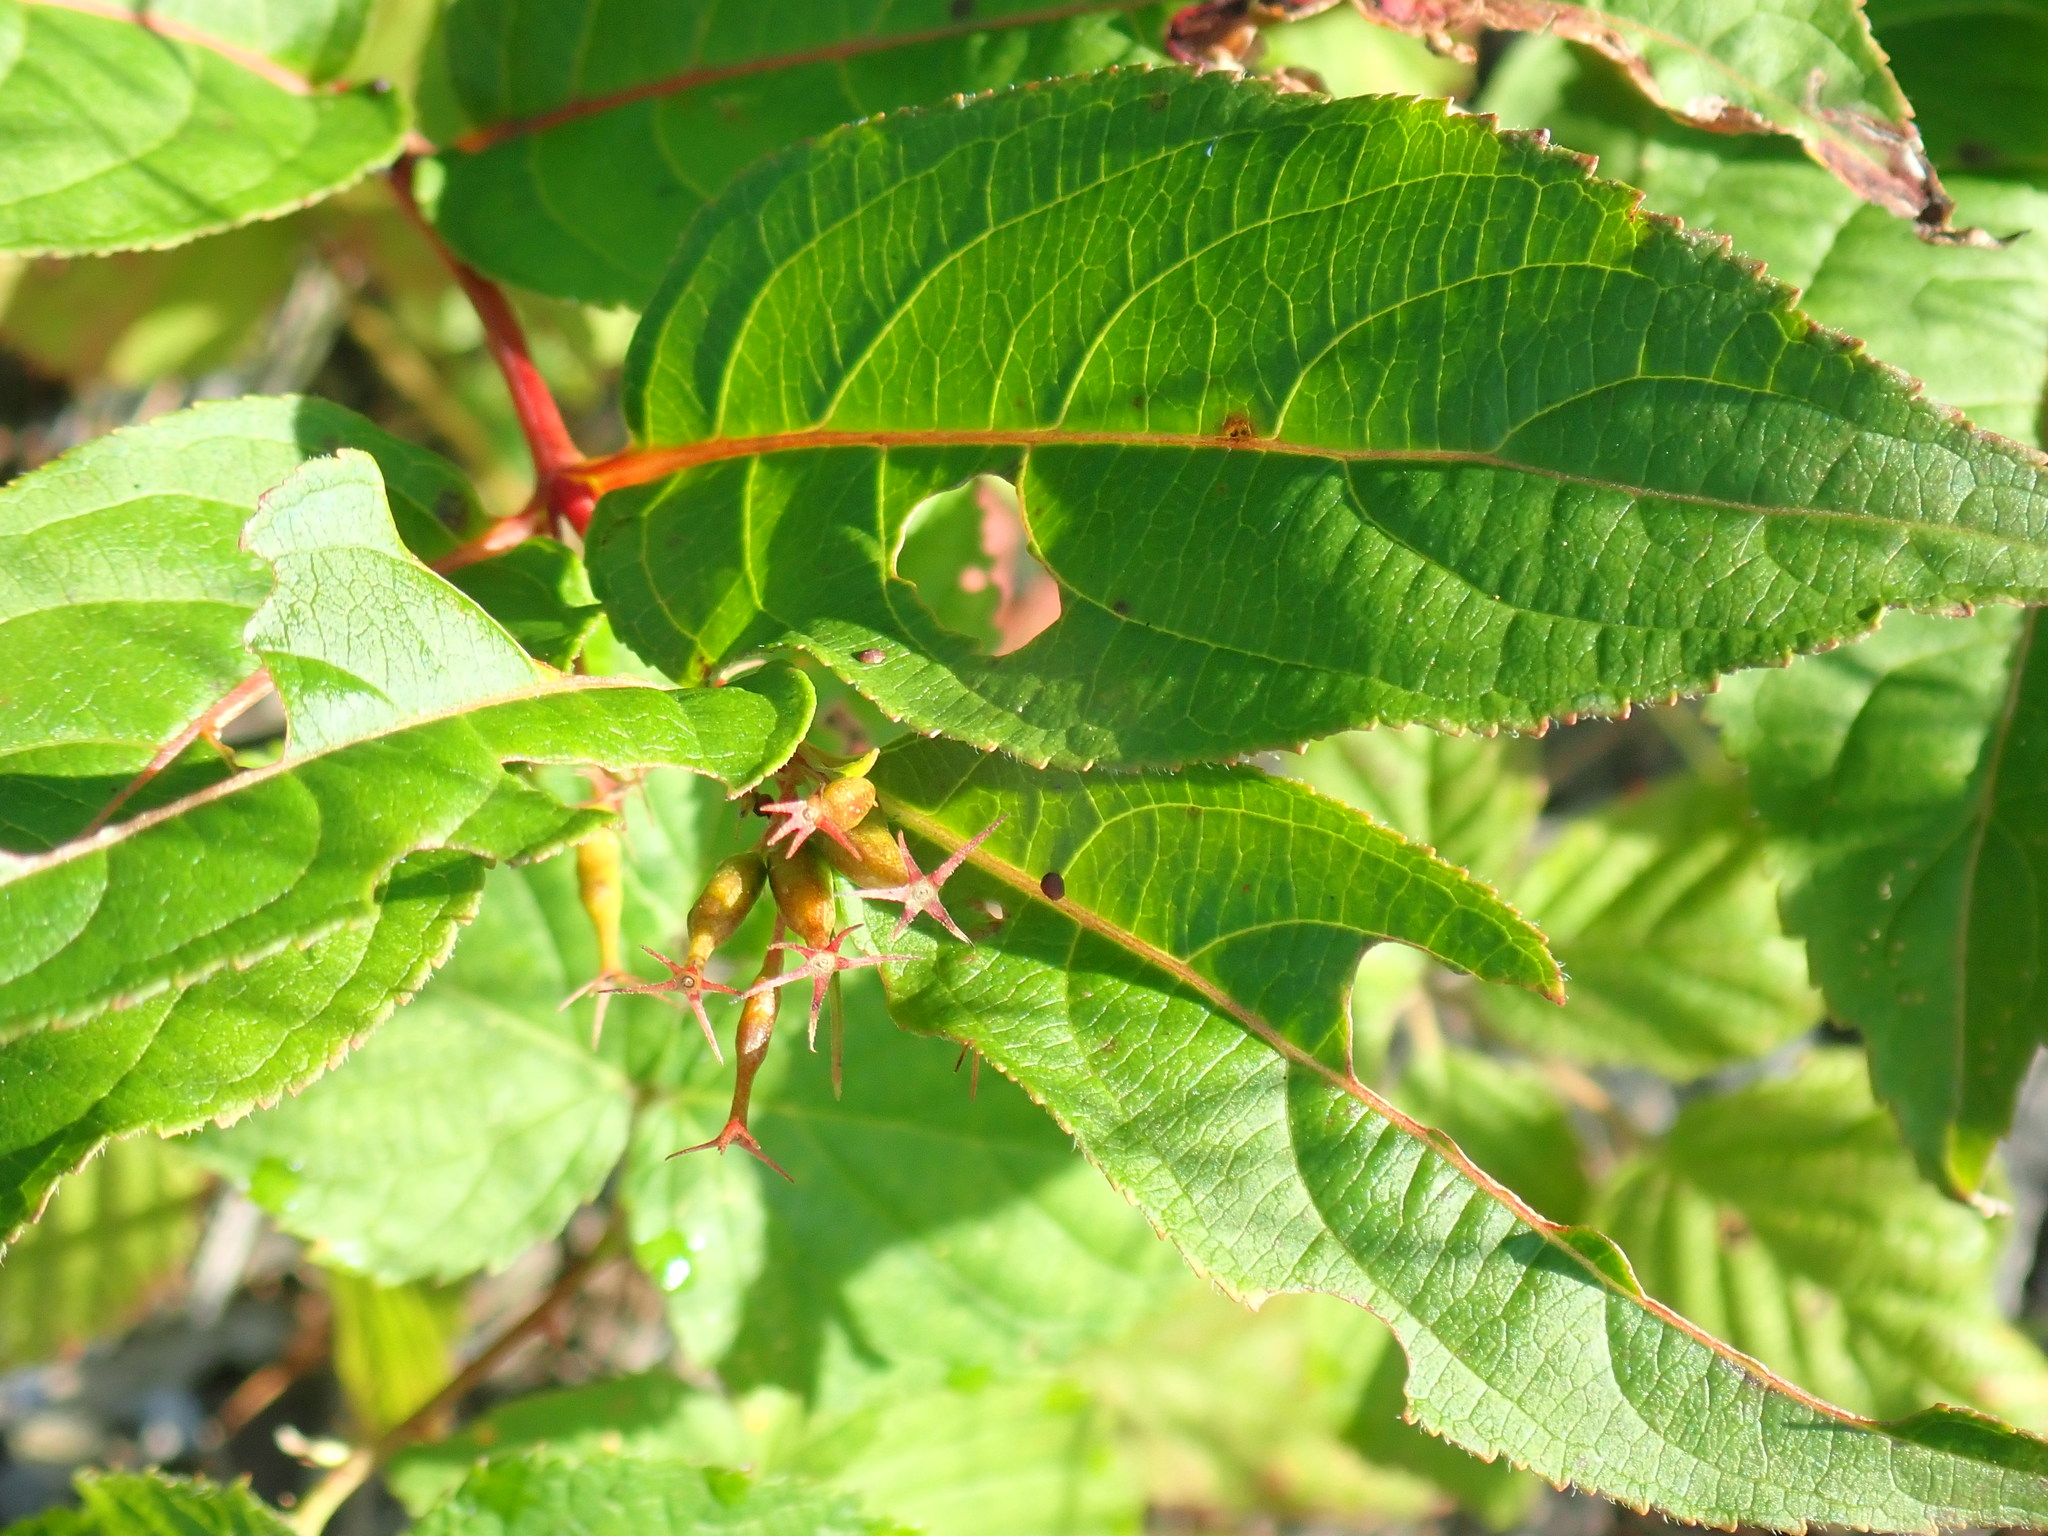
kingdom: Plantae
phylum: Tracheophyta
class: Magnoliopsida
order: Dipsacales
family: Caprifoliaceae
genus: Diervilla
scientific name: Diervilla lonicera
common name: Bush-honeysuckle
